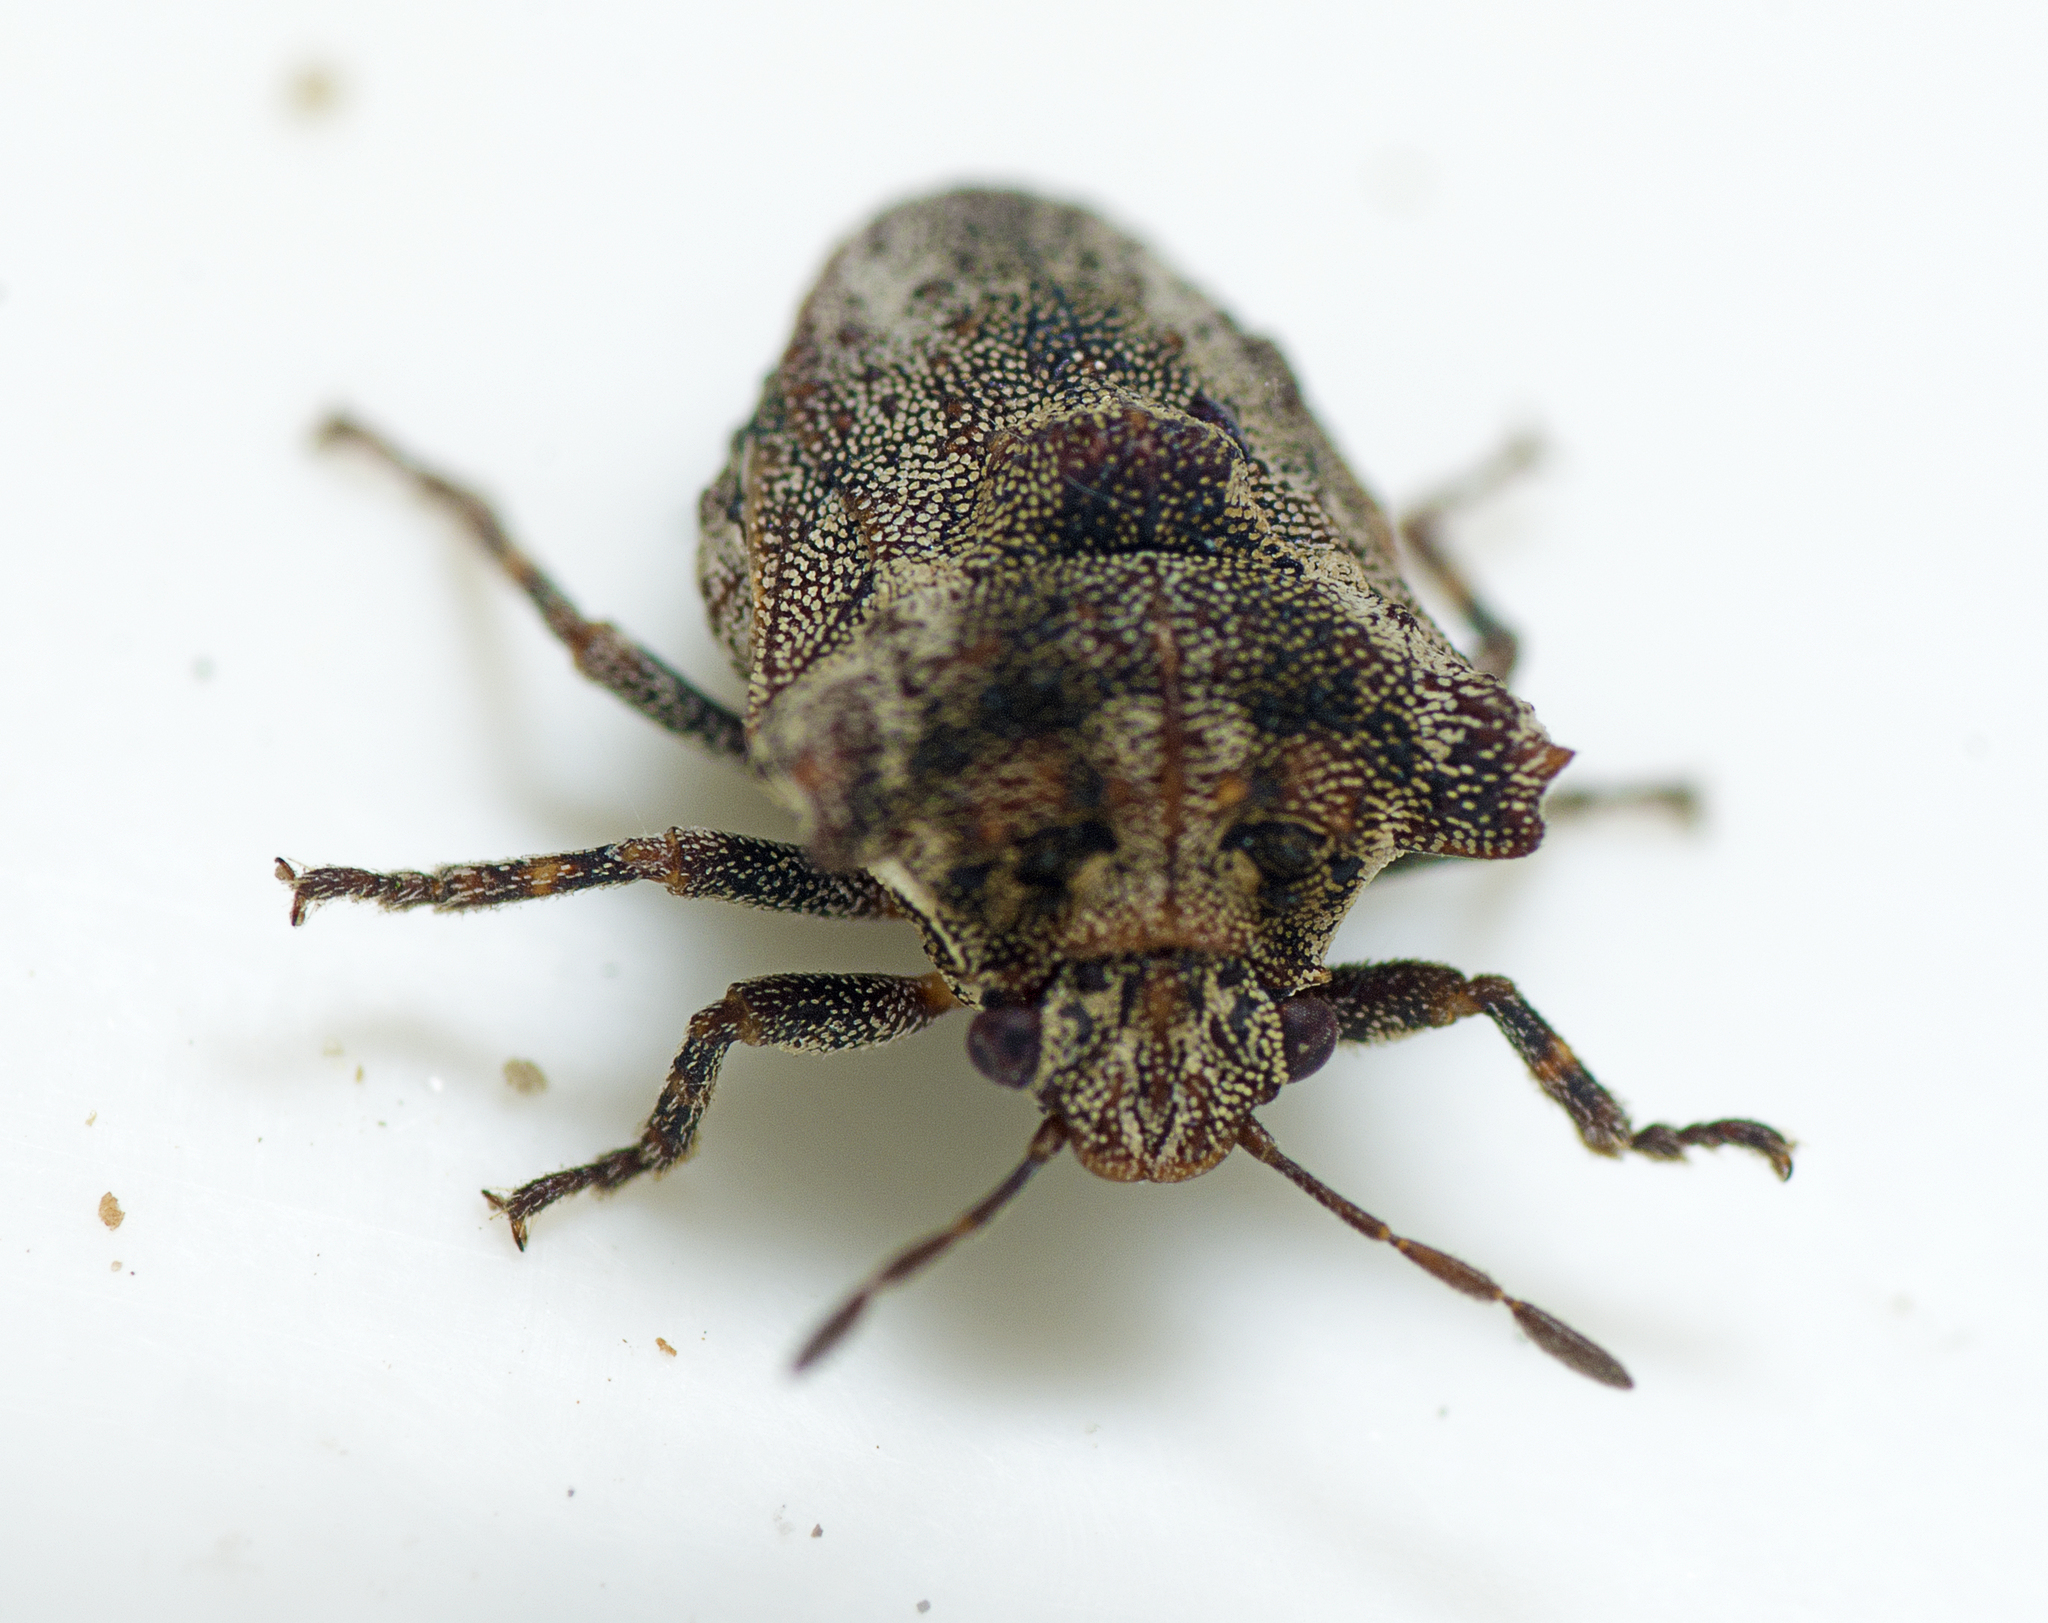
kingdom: Animalia
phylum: Arthropoda
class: Insecta
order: Hemiptera
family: Pentatomidae
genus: Eufroggattia
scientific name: Eufroggattia
